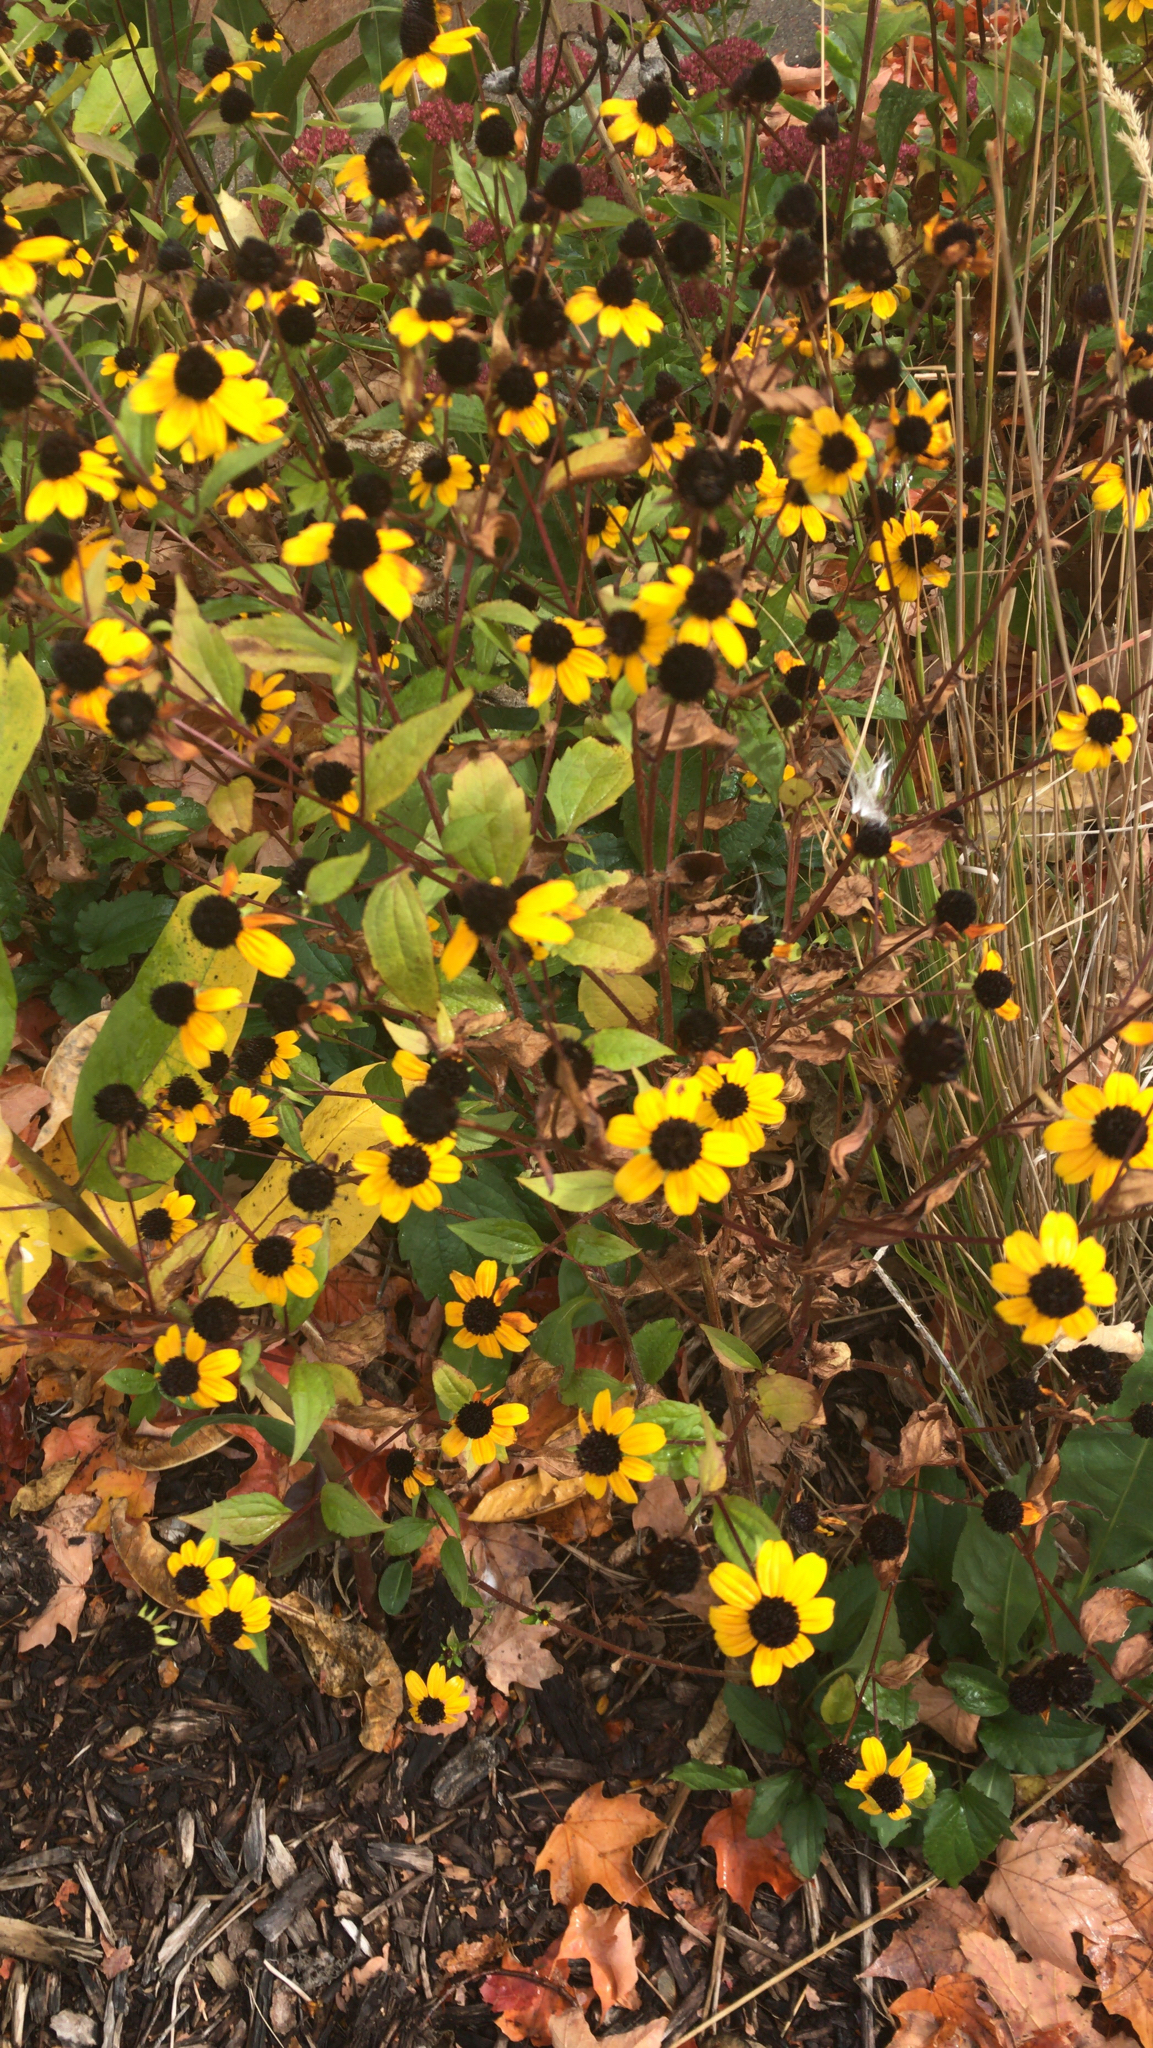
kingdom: Plantae
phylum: Tracheophyta
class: Magnoliopsida
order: Asterales
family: Asteraceae
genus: Rudbeckia
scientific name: Rudbeckia triloba
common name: Thin-leaved coneflower
